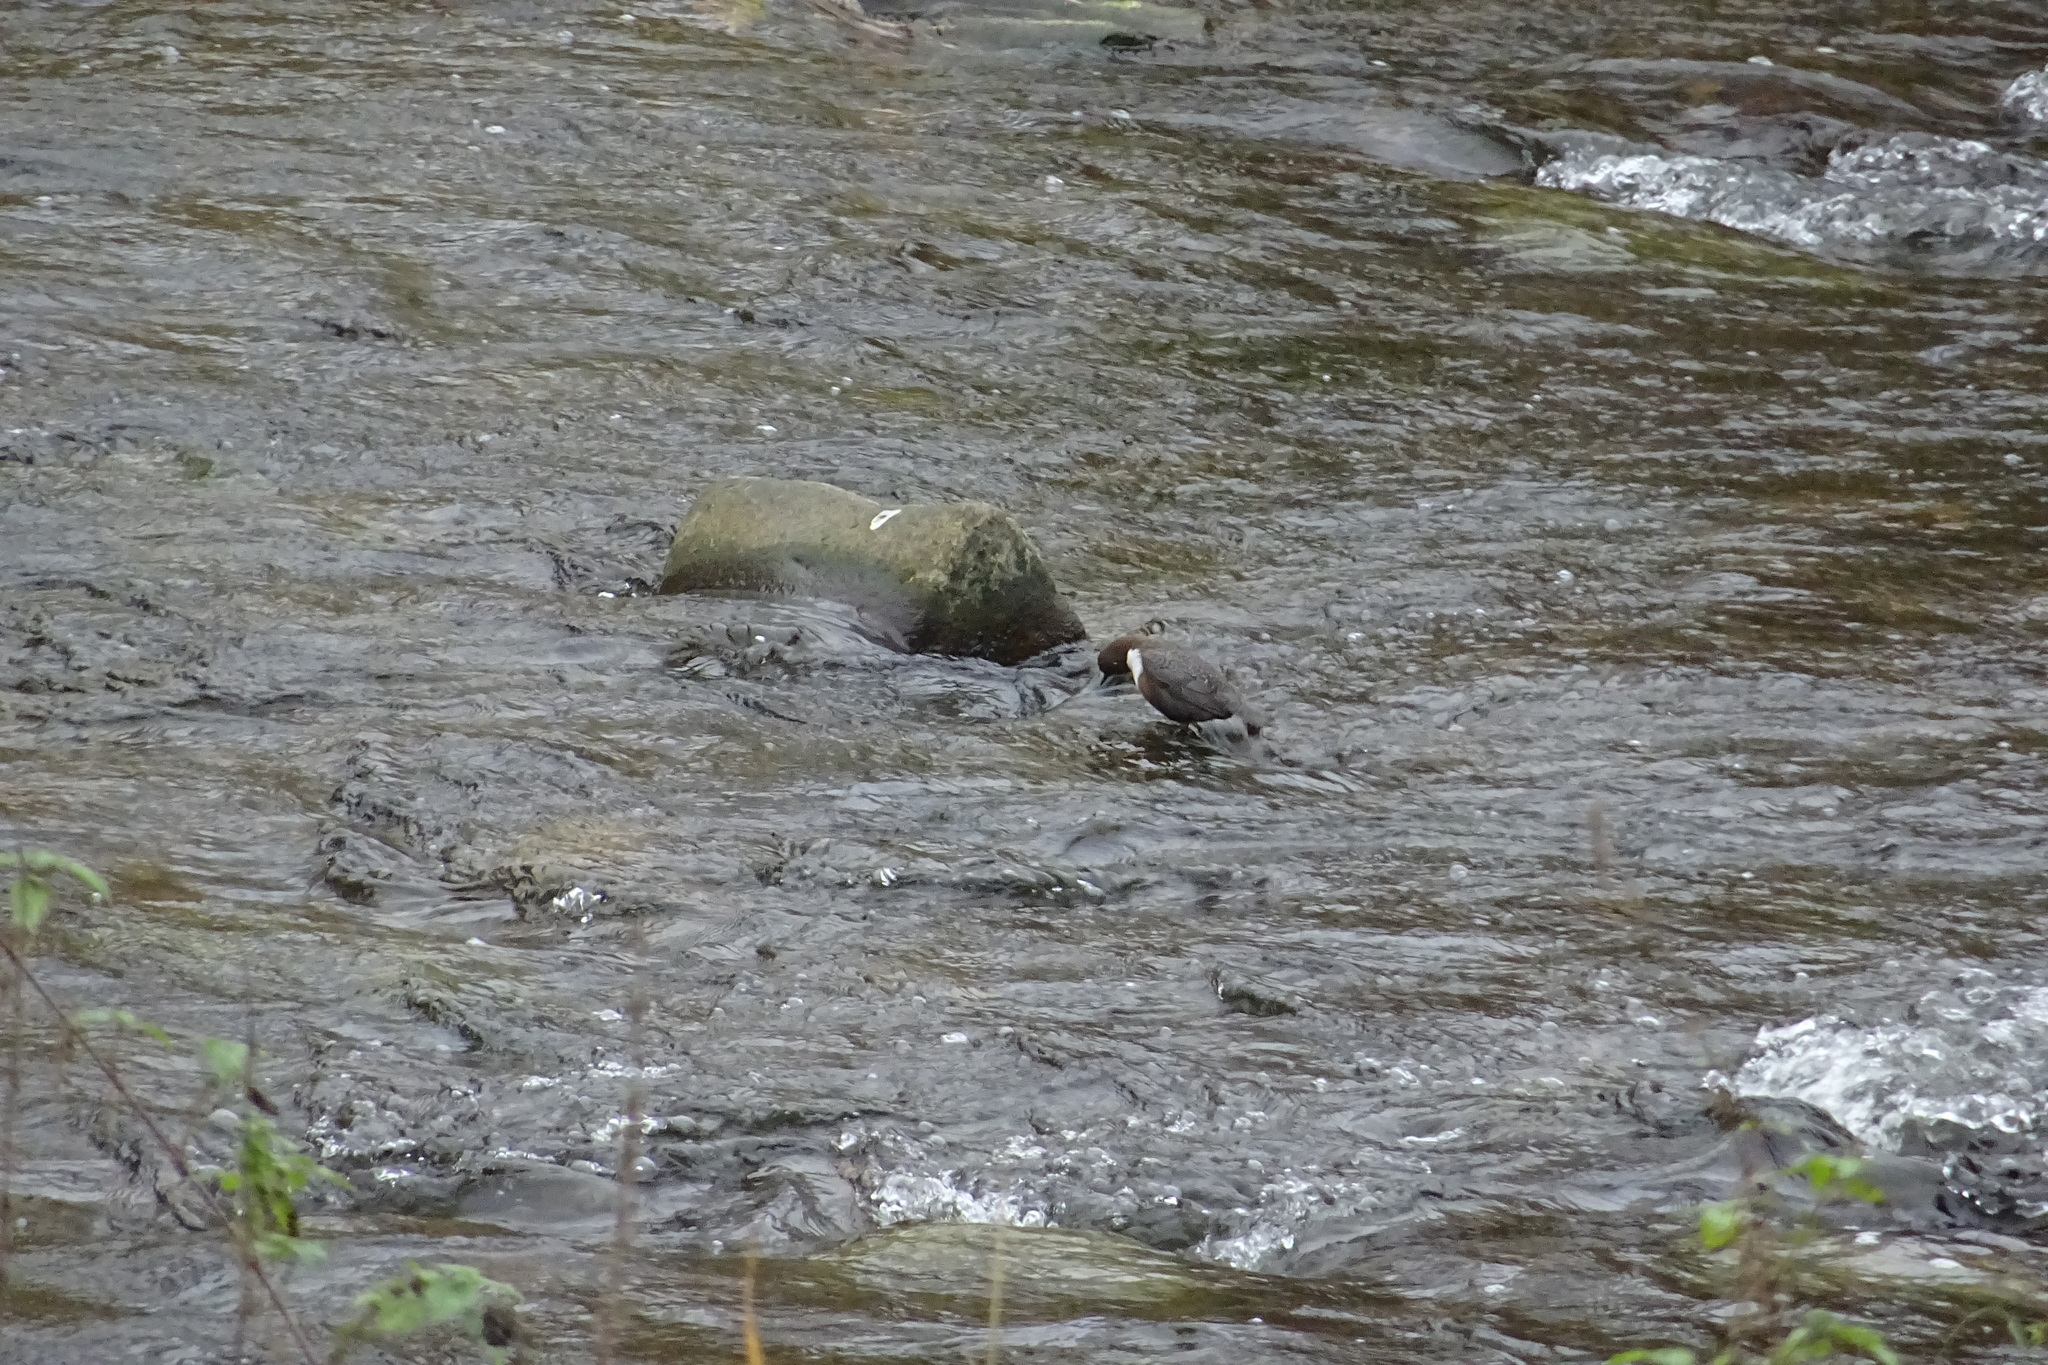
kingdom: Animalia
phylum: Chordata
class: Aves
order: Passeriformes
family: Cinclidae
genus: Cinclus
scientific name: Cinclus cinclus
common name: White-throated dipper
